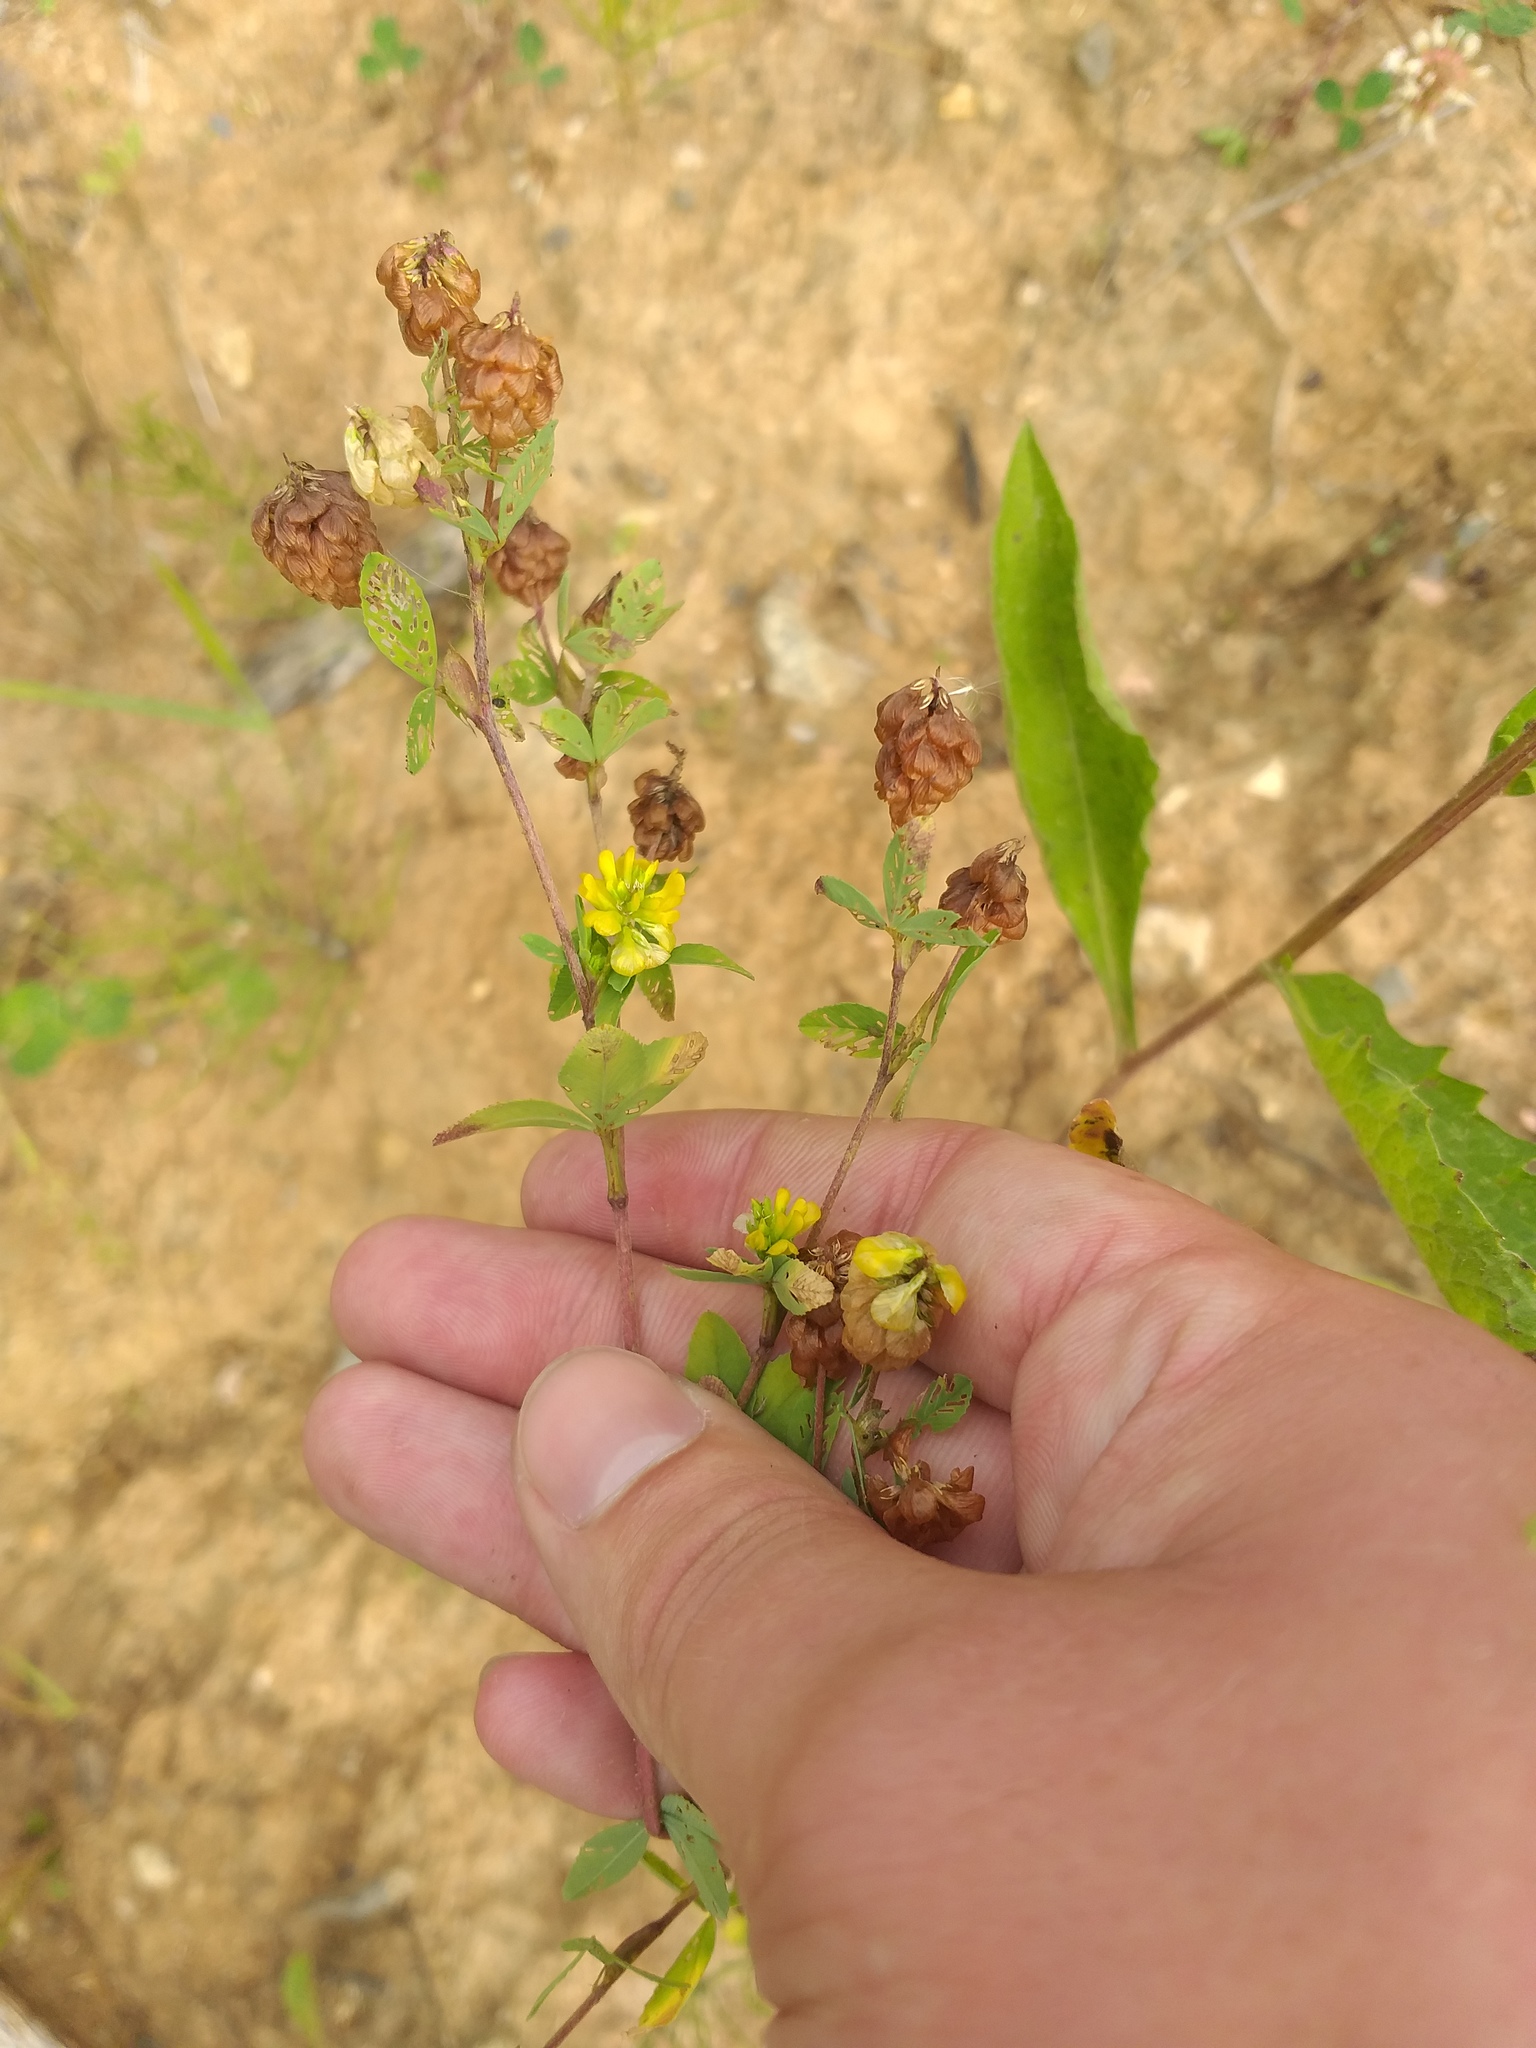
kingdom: Plantae
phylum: Tracheophyta
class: Magnoliopsida
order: Fabales
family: Fabaceae
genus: Trifolium
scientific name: Trifolium aureum
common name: Golden clover
